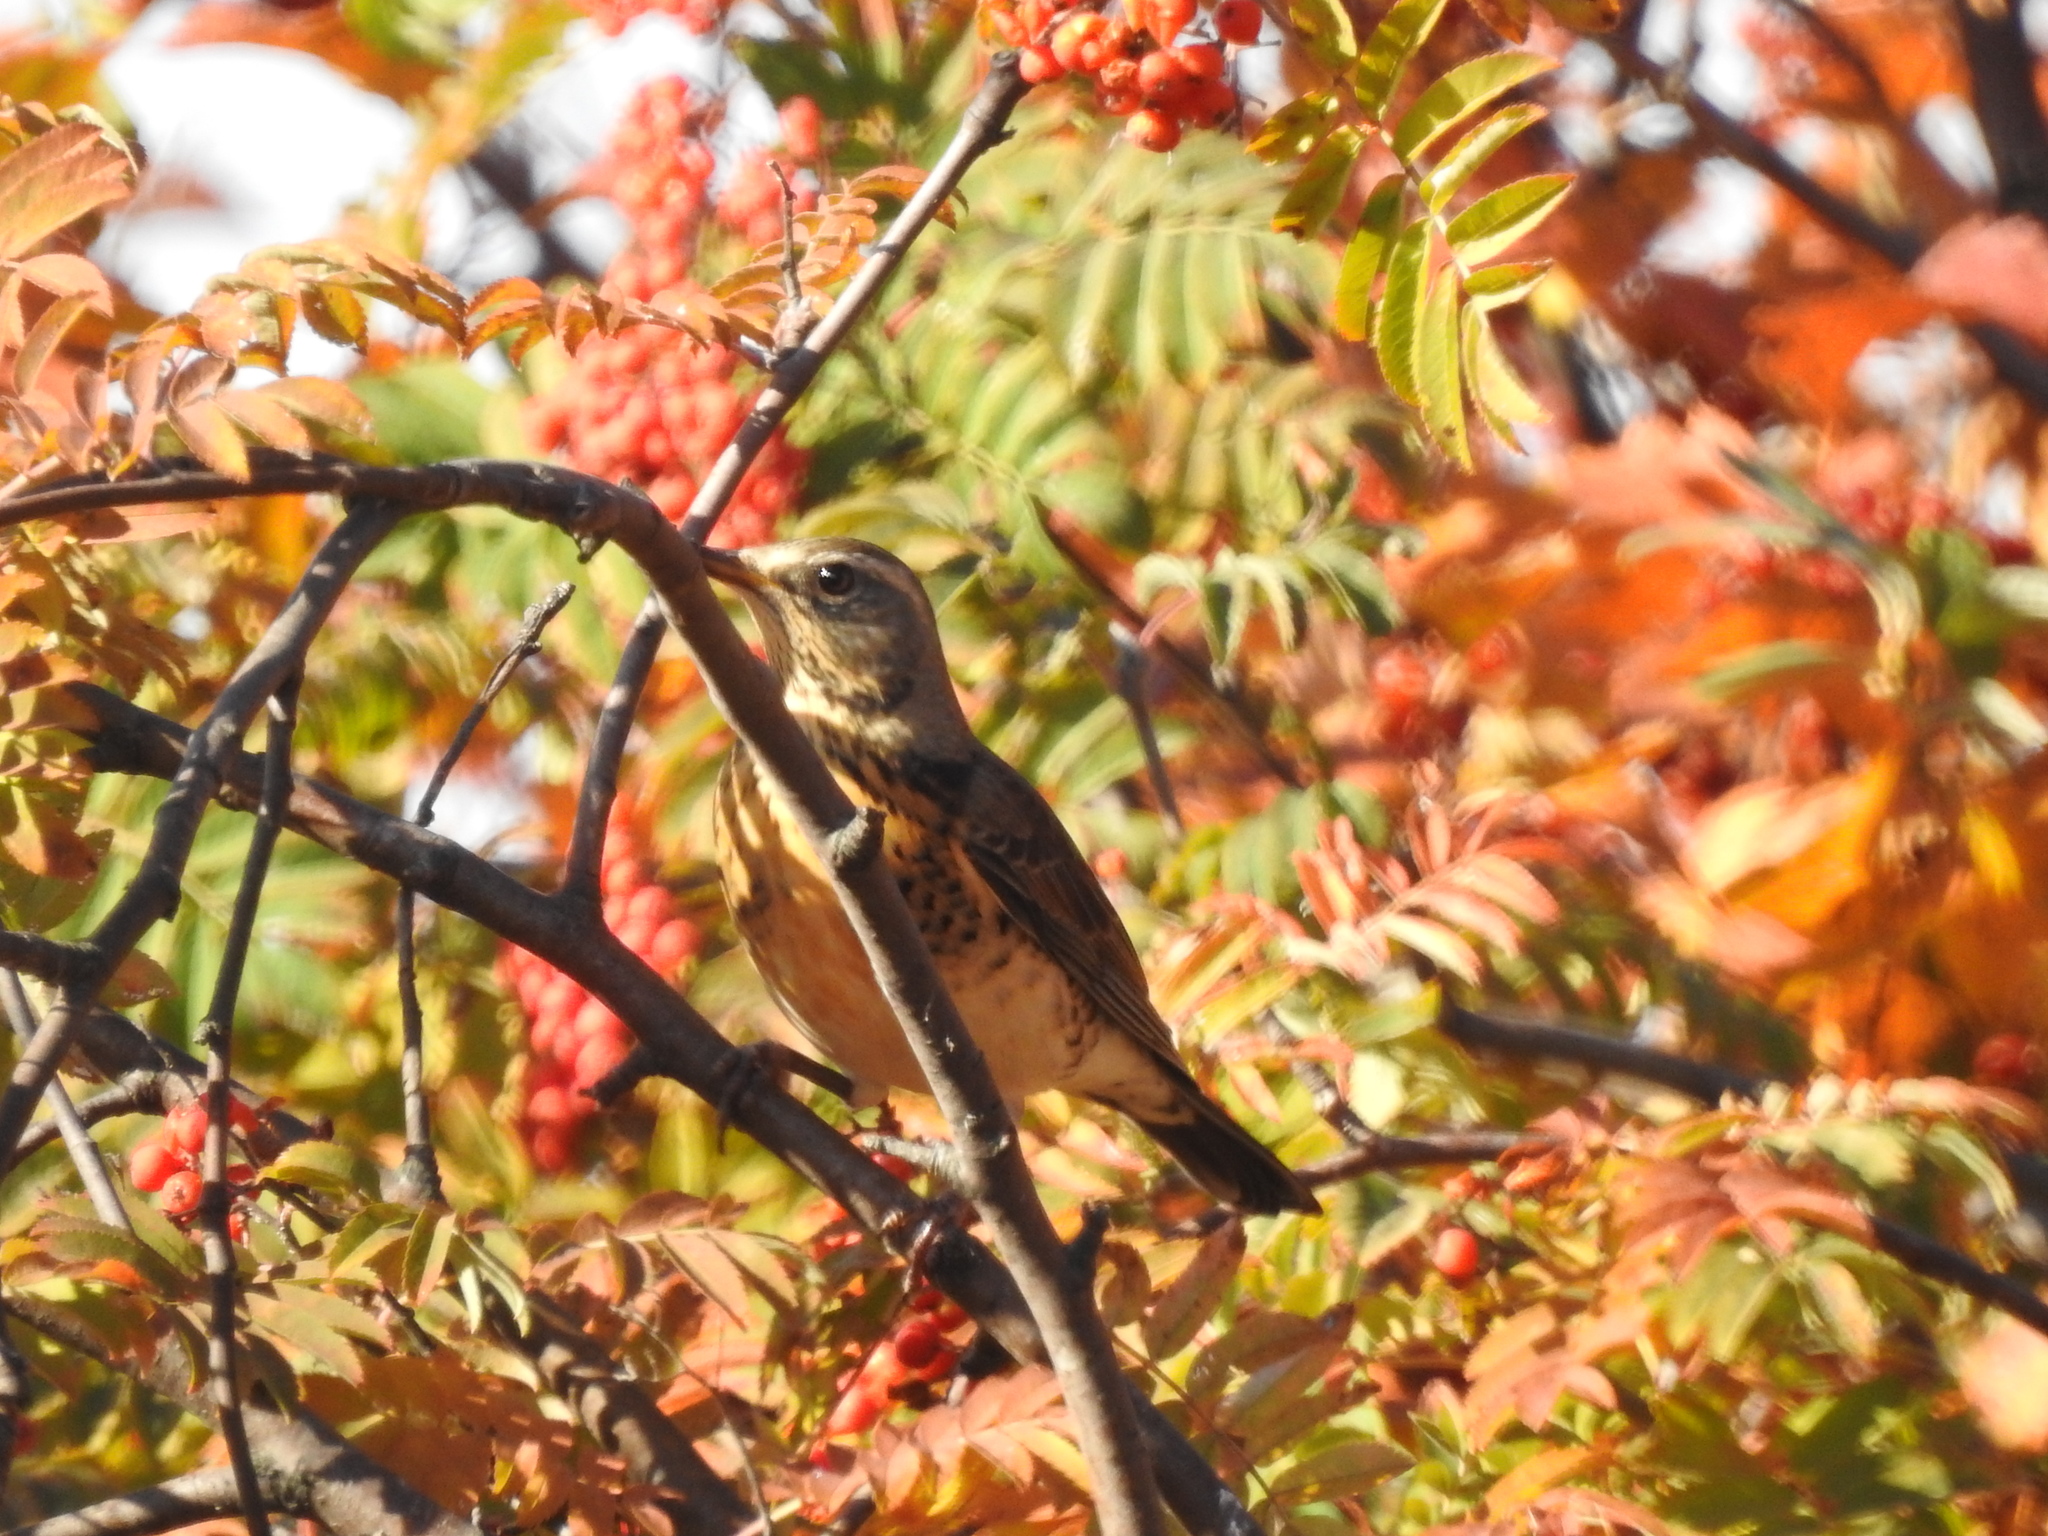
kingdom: Animalia
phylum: Chordata
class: Aves
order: Passeriformes
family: Turdidae
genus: Turdus
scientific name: Turdus pilaris
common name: Fieldfare
